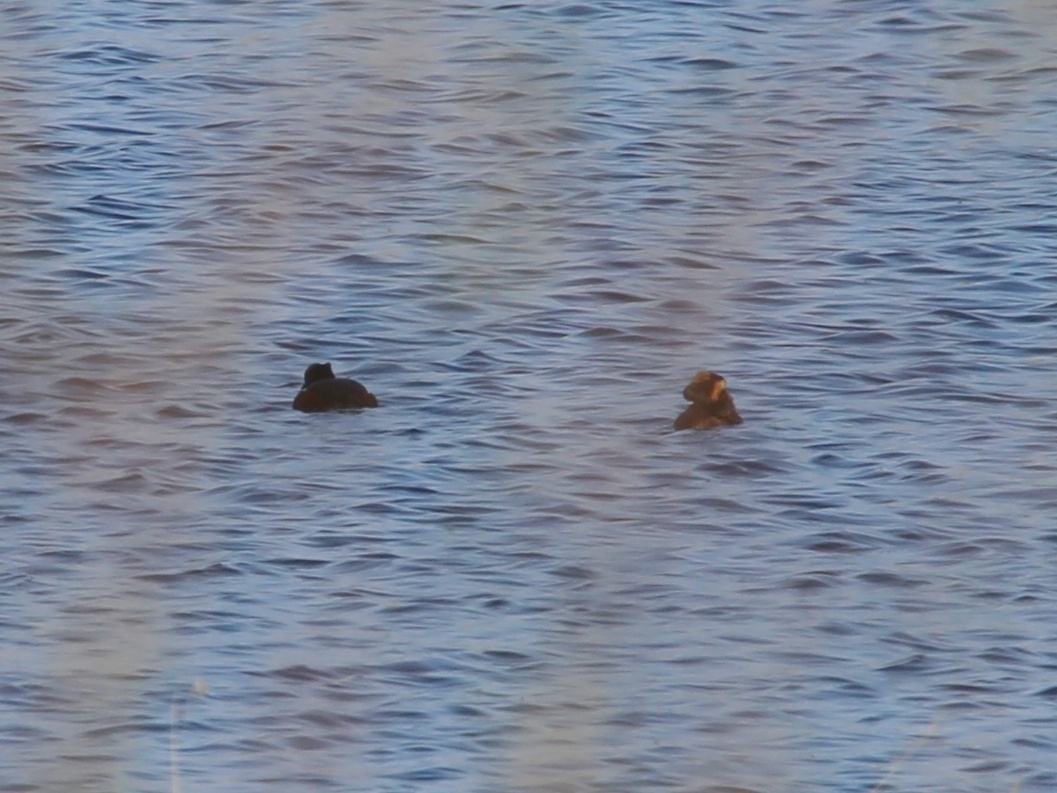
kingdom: Animalia
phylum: Chordata
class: Aves
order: Podicipediformes
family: Podicipedidae
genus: Podiceps
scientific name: Podiceps auritus
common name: Horned grebe
